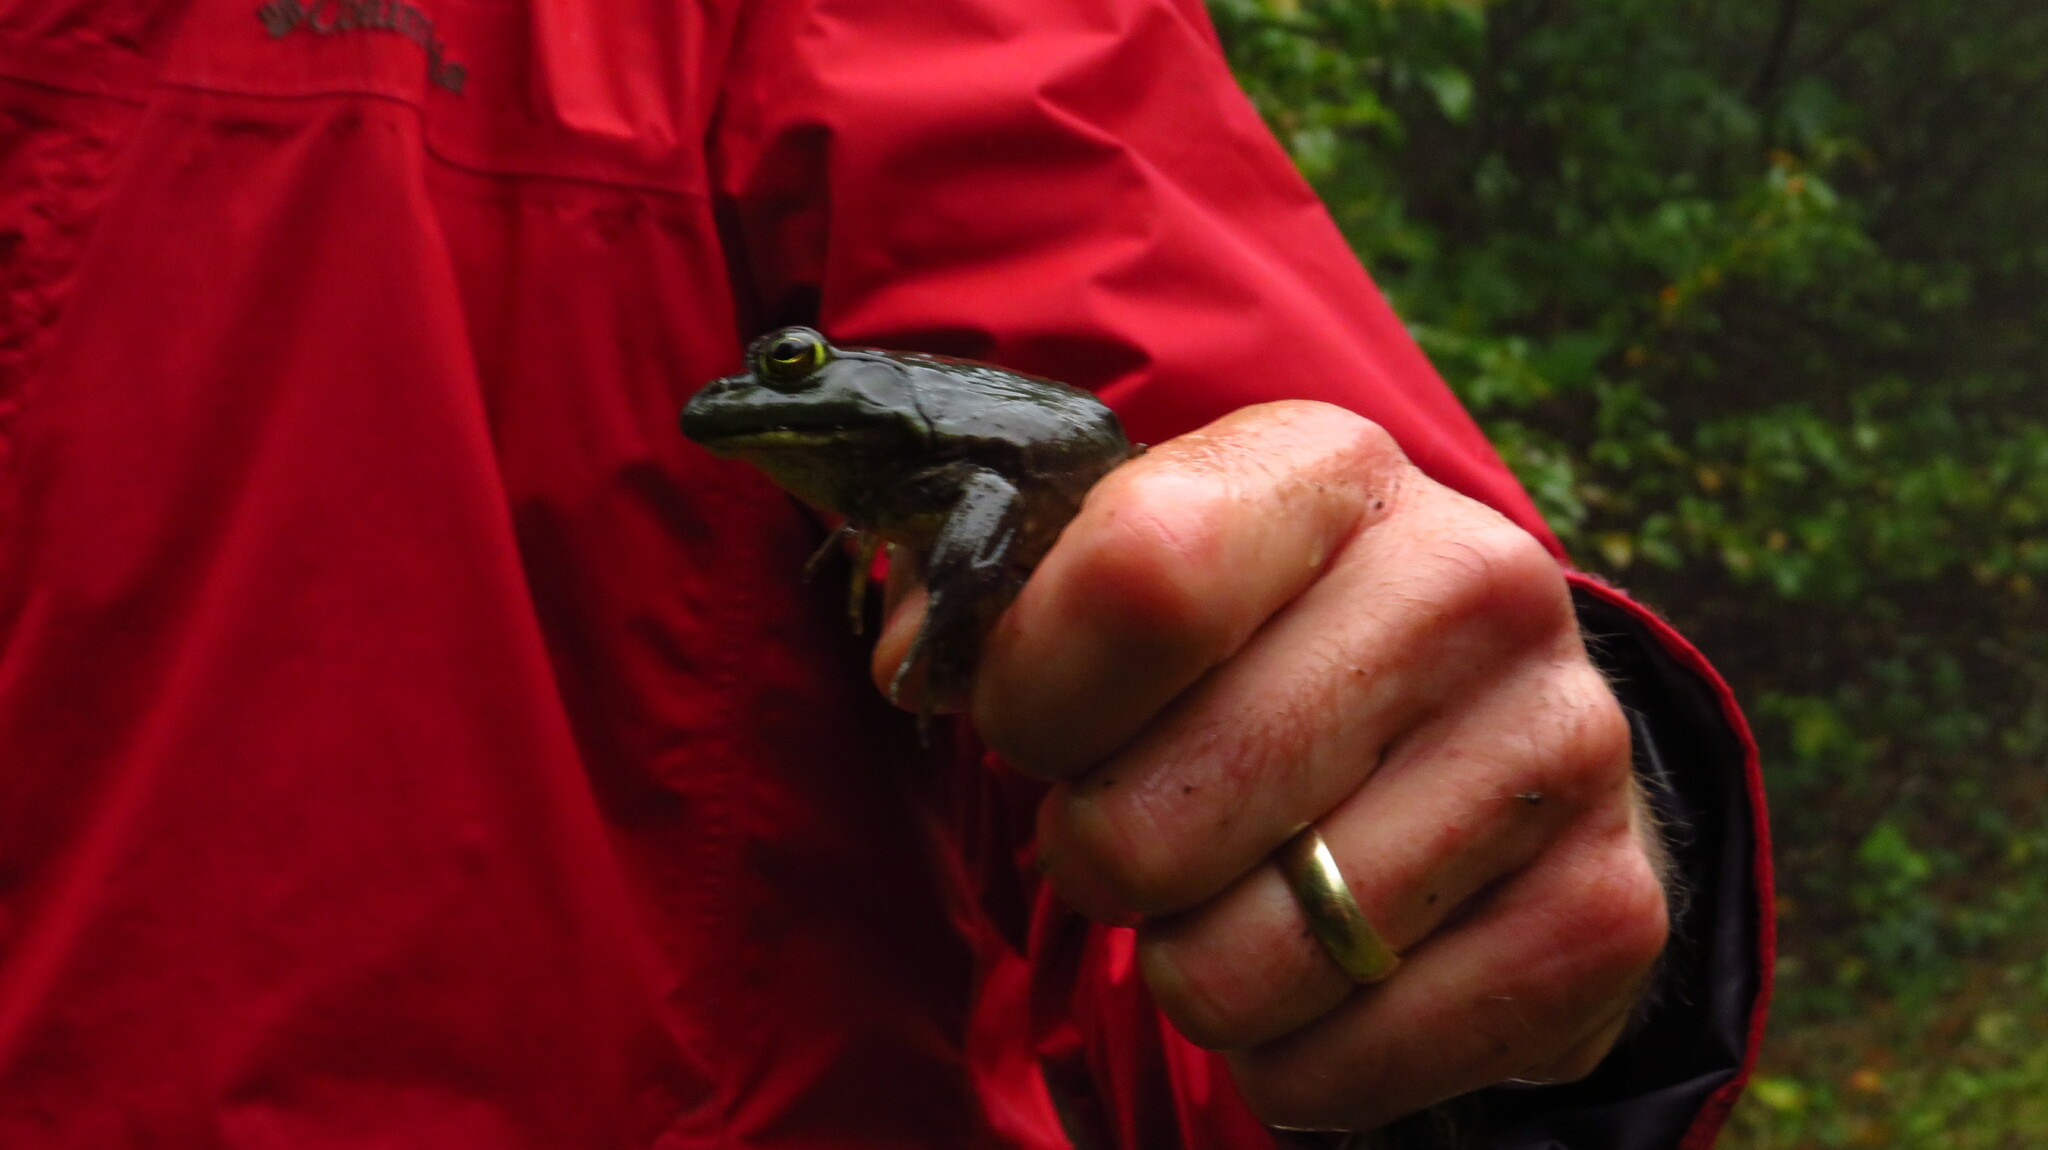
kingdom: Animalia
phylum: Chordata
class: Amphibia
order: Anura
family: Ranidae
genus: Lithobates
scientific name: Lithobates catesbeianus
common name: American bullfrog
